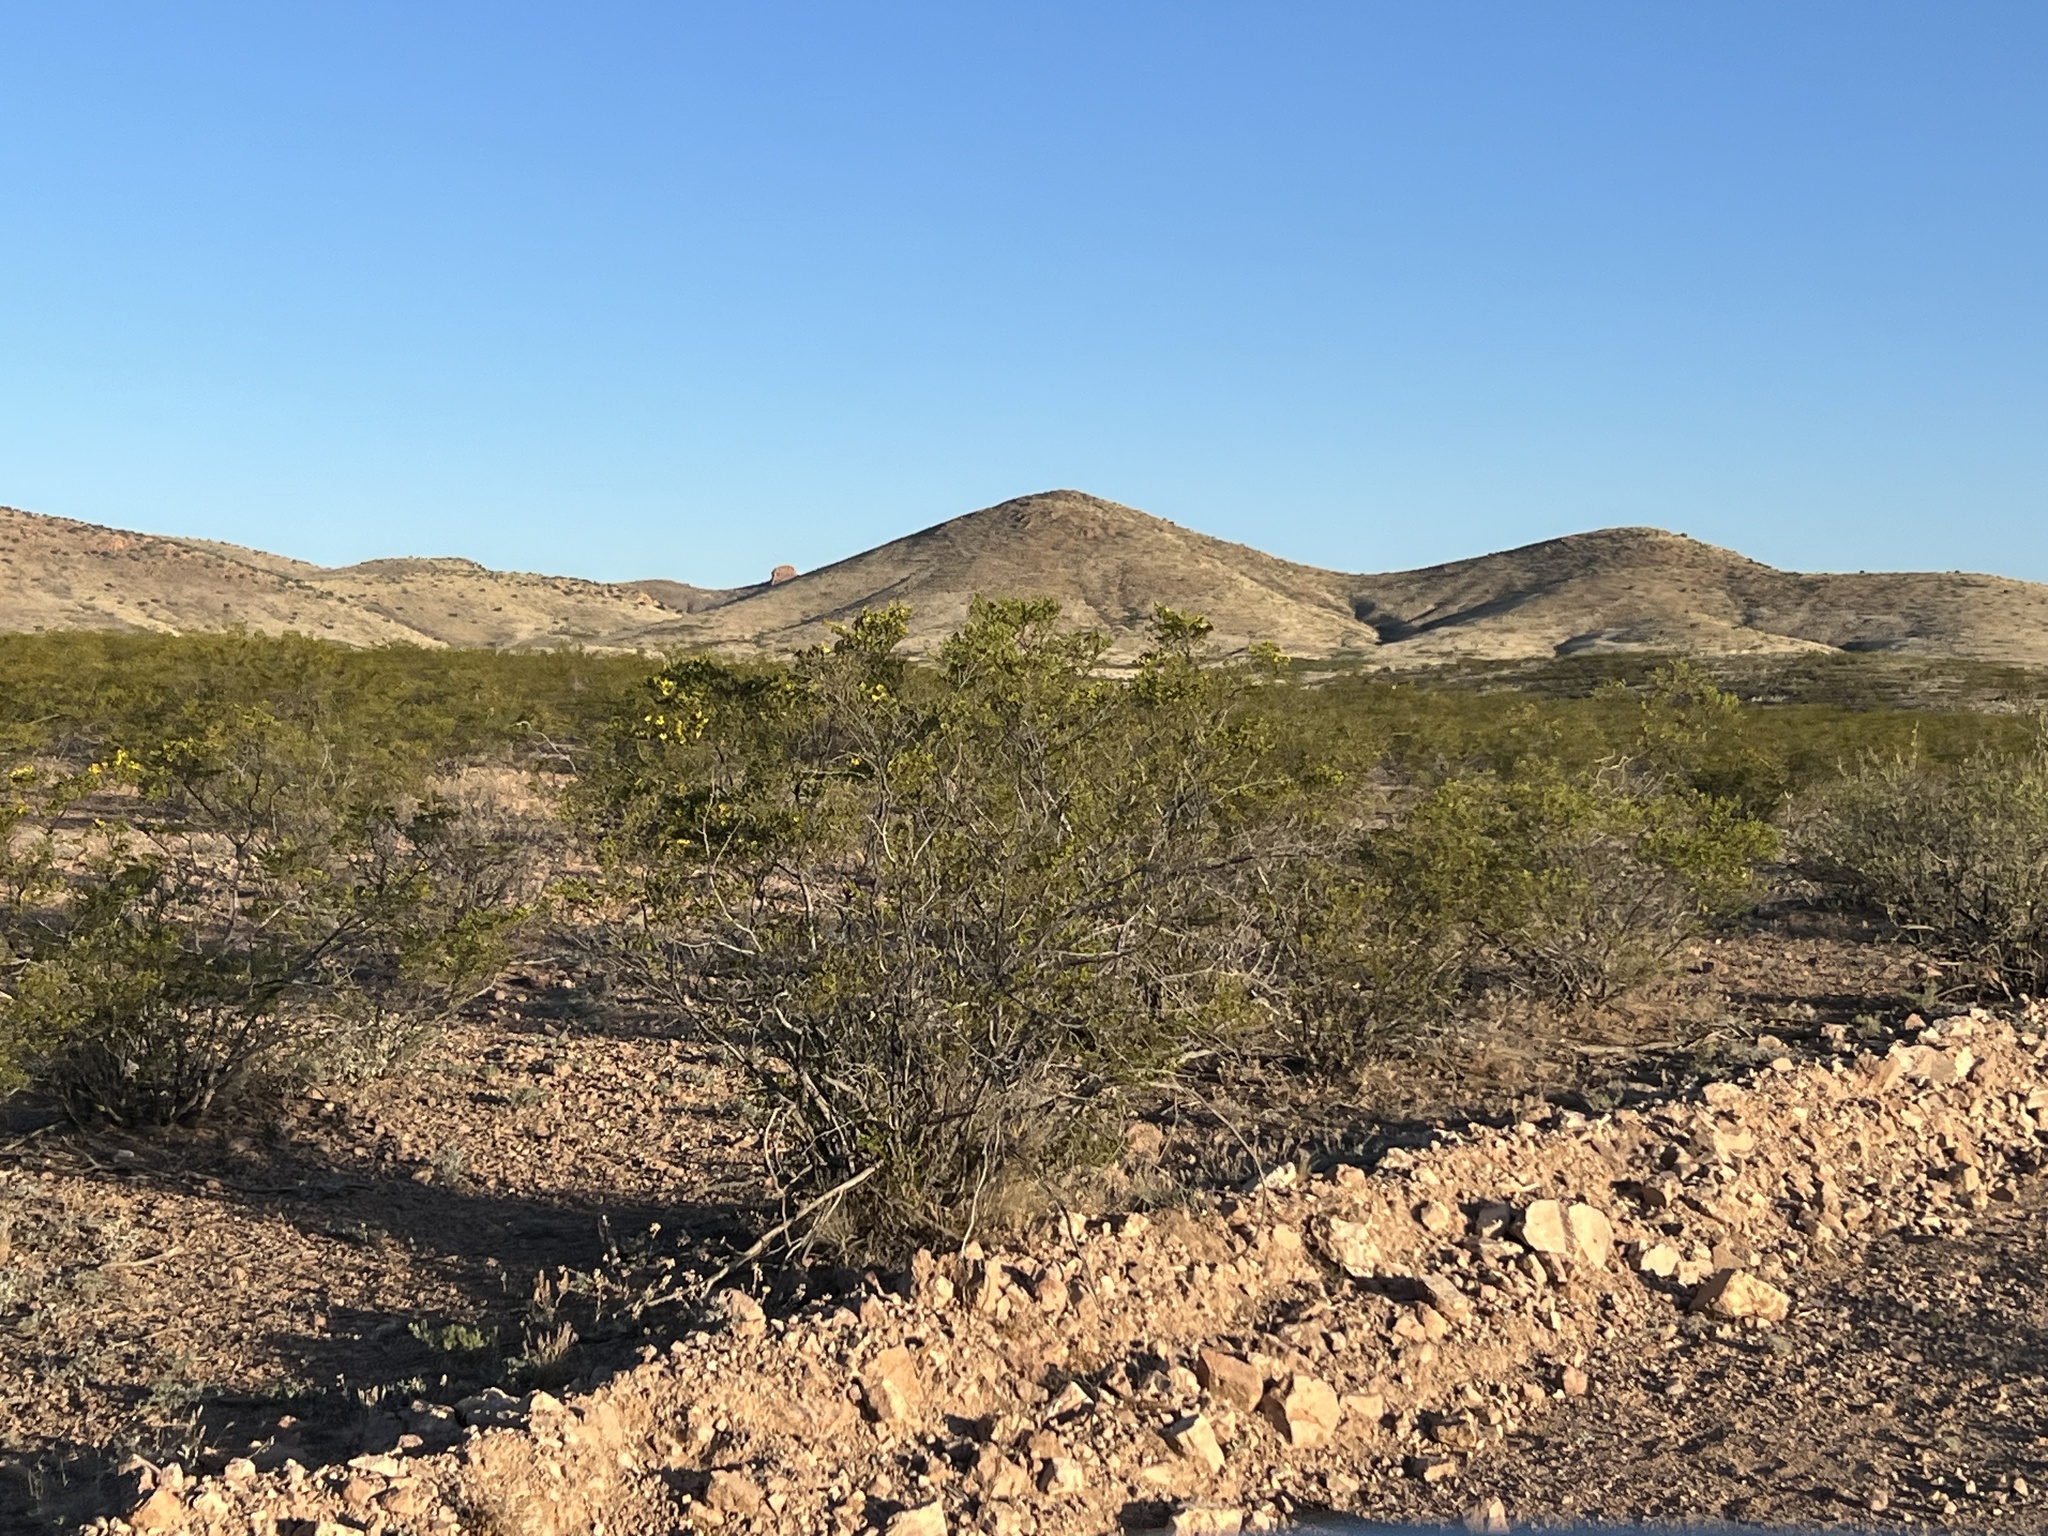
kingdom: Plantae
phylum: Tracheophyta
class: Magnoliopsida
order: Zygophyllales
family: Zygophyllaceae
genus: Larrea
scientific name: Larrea tridentata
